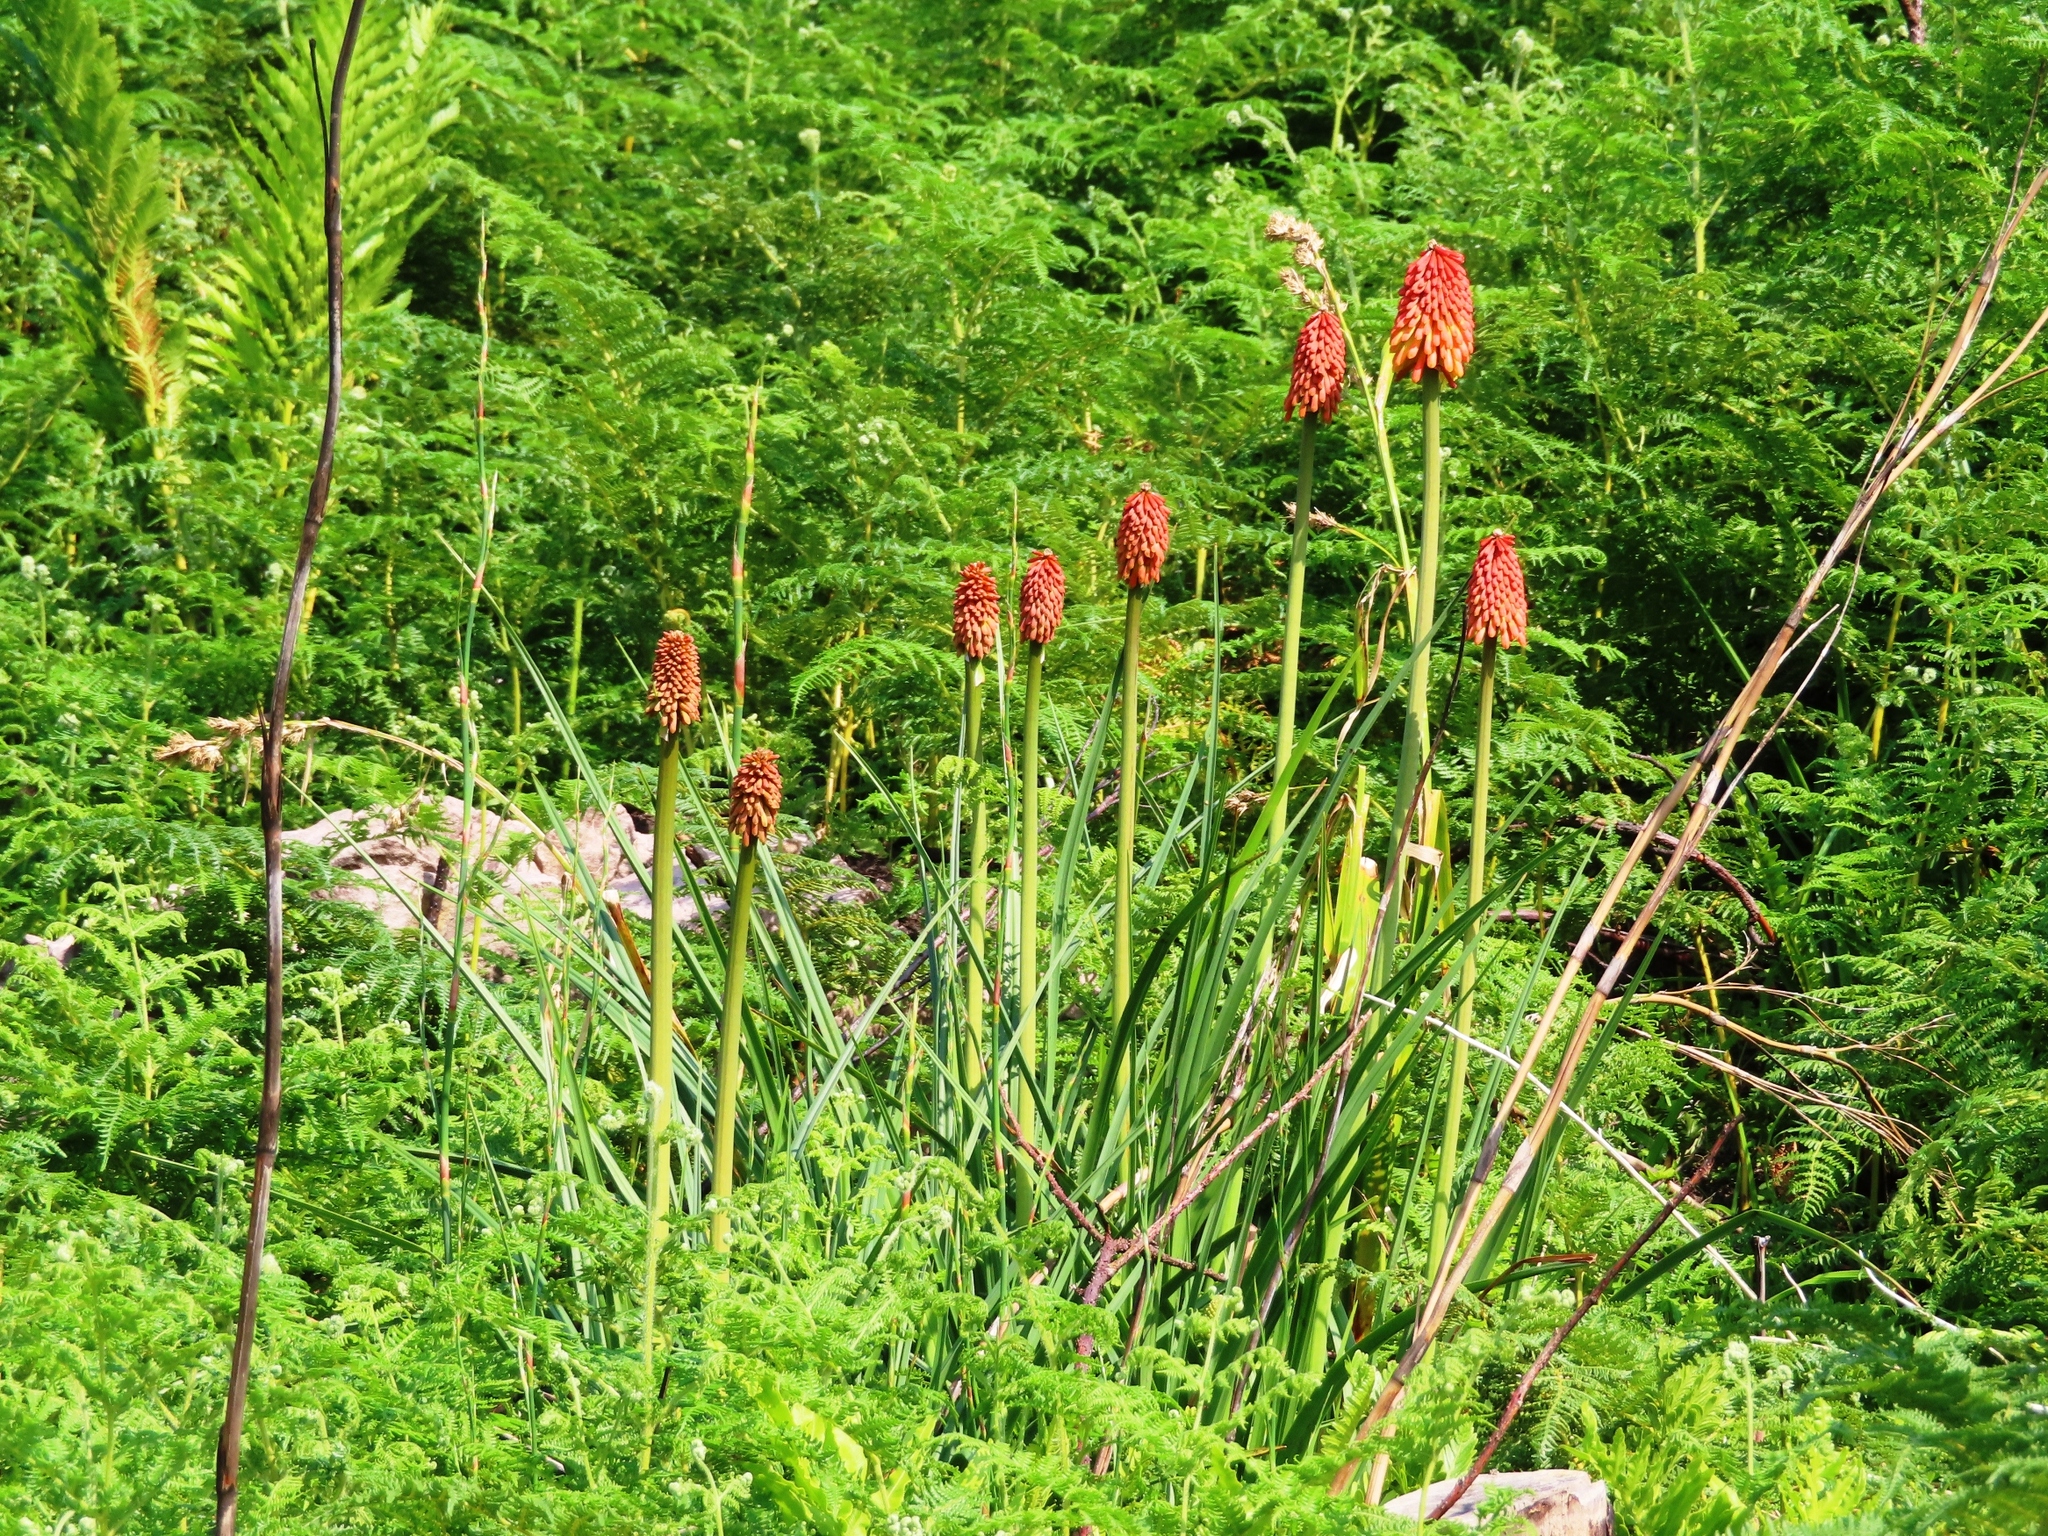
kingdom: Plantae
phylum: Tracheophyta
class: Liliopsida
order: Asparagales
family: Asphodelaceae
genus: Kniphofia
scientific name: Kniphofia uvaria
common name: Red-hot-poker
